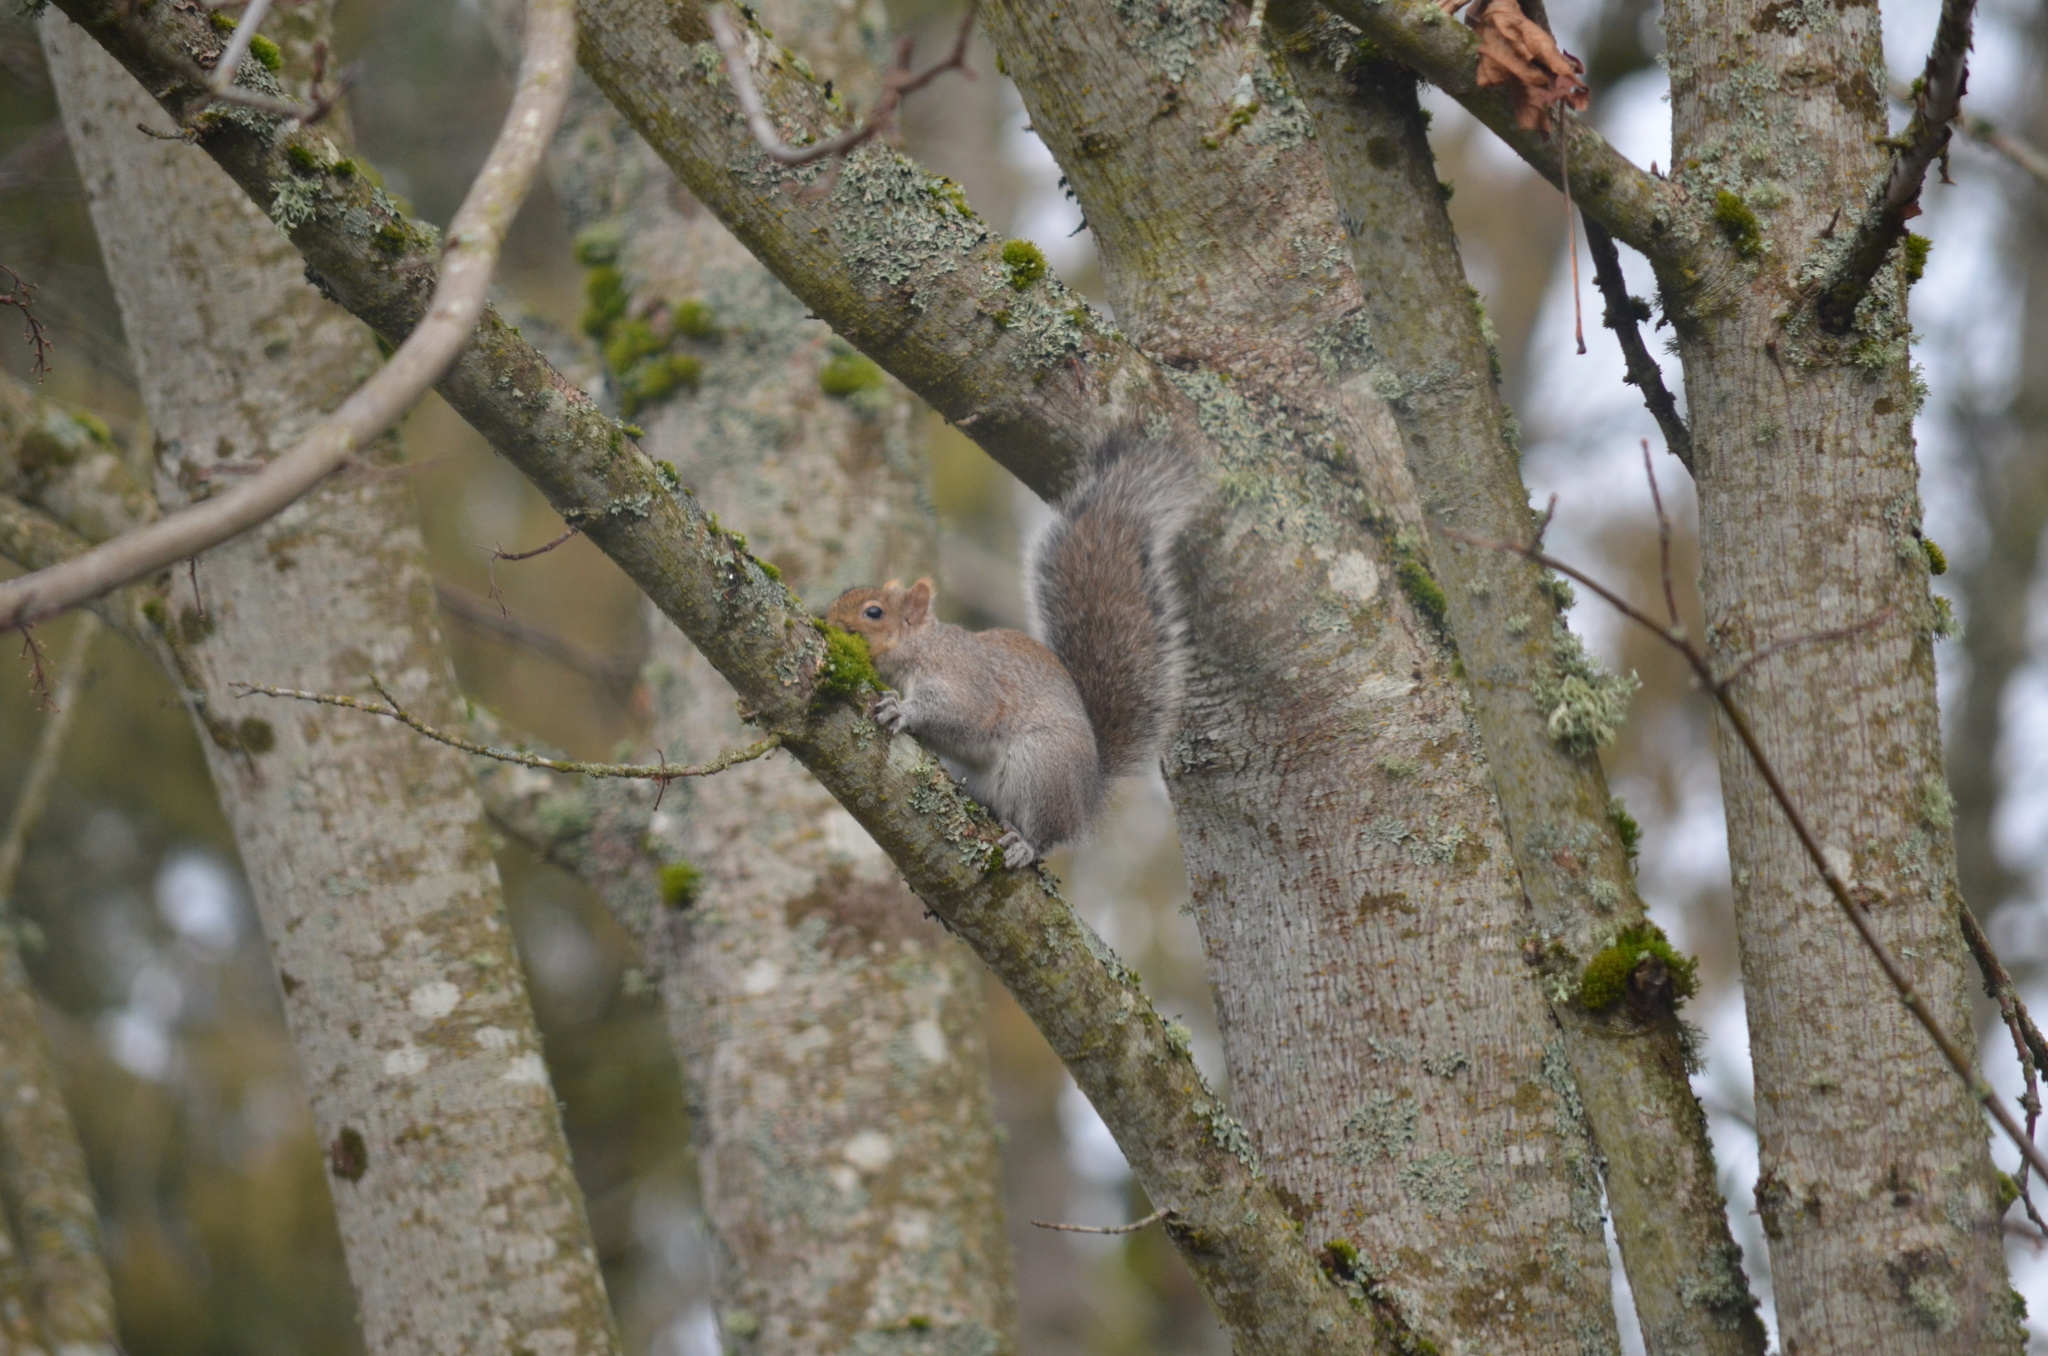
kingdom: Animalia
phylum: Chordata
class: Mammalia
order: Rodentia
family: Sciuridae
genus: Sciurus
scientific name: Sciurus carolinensis
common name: Eastern gray squirrel
